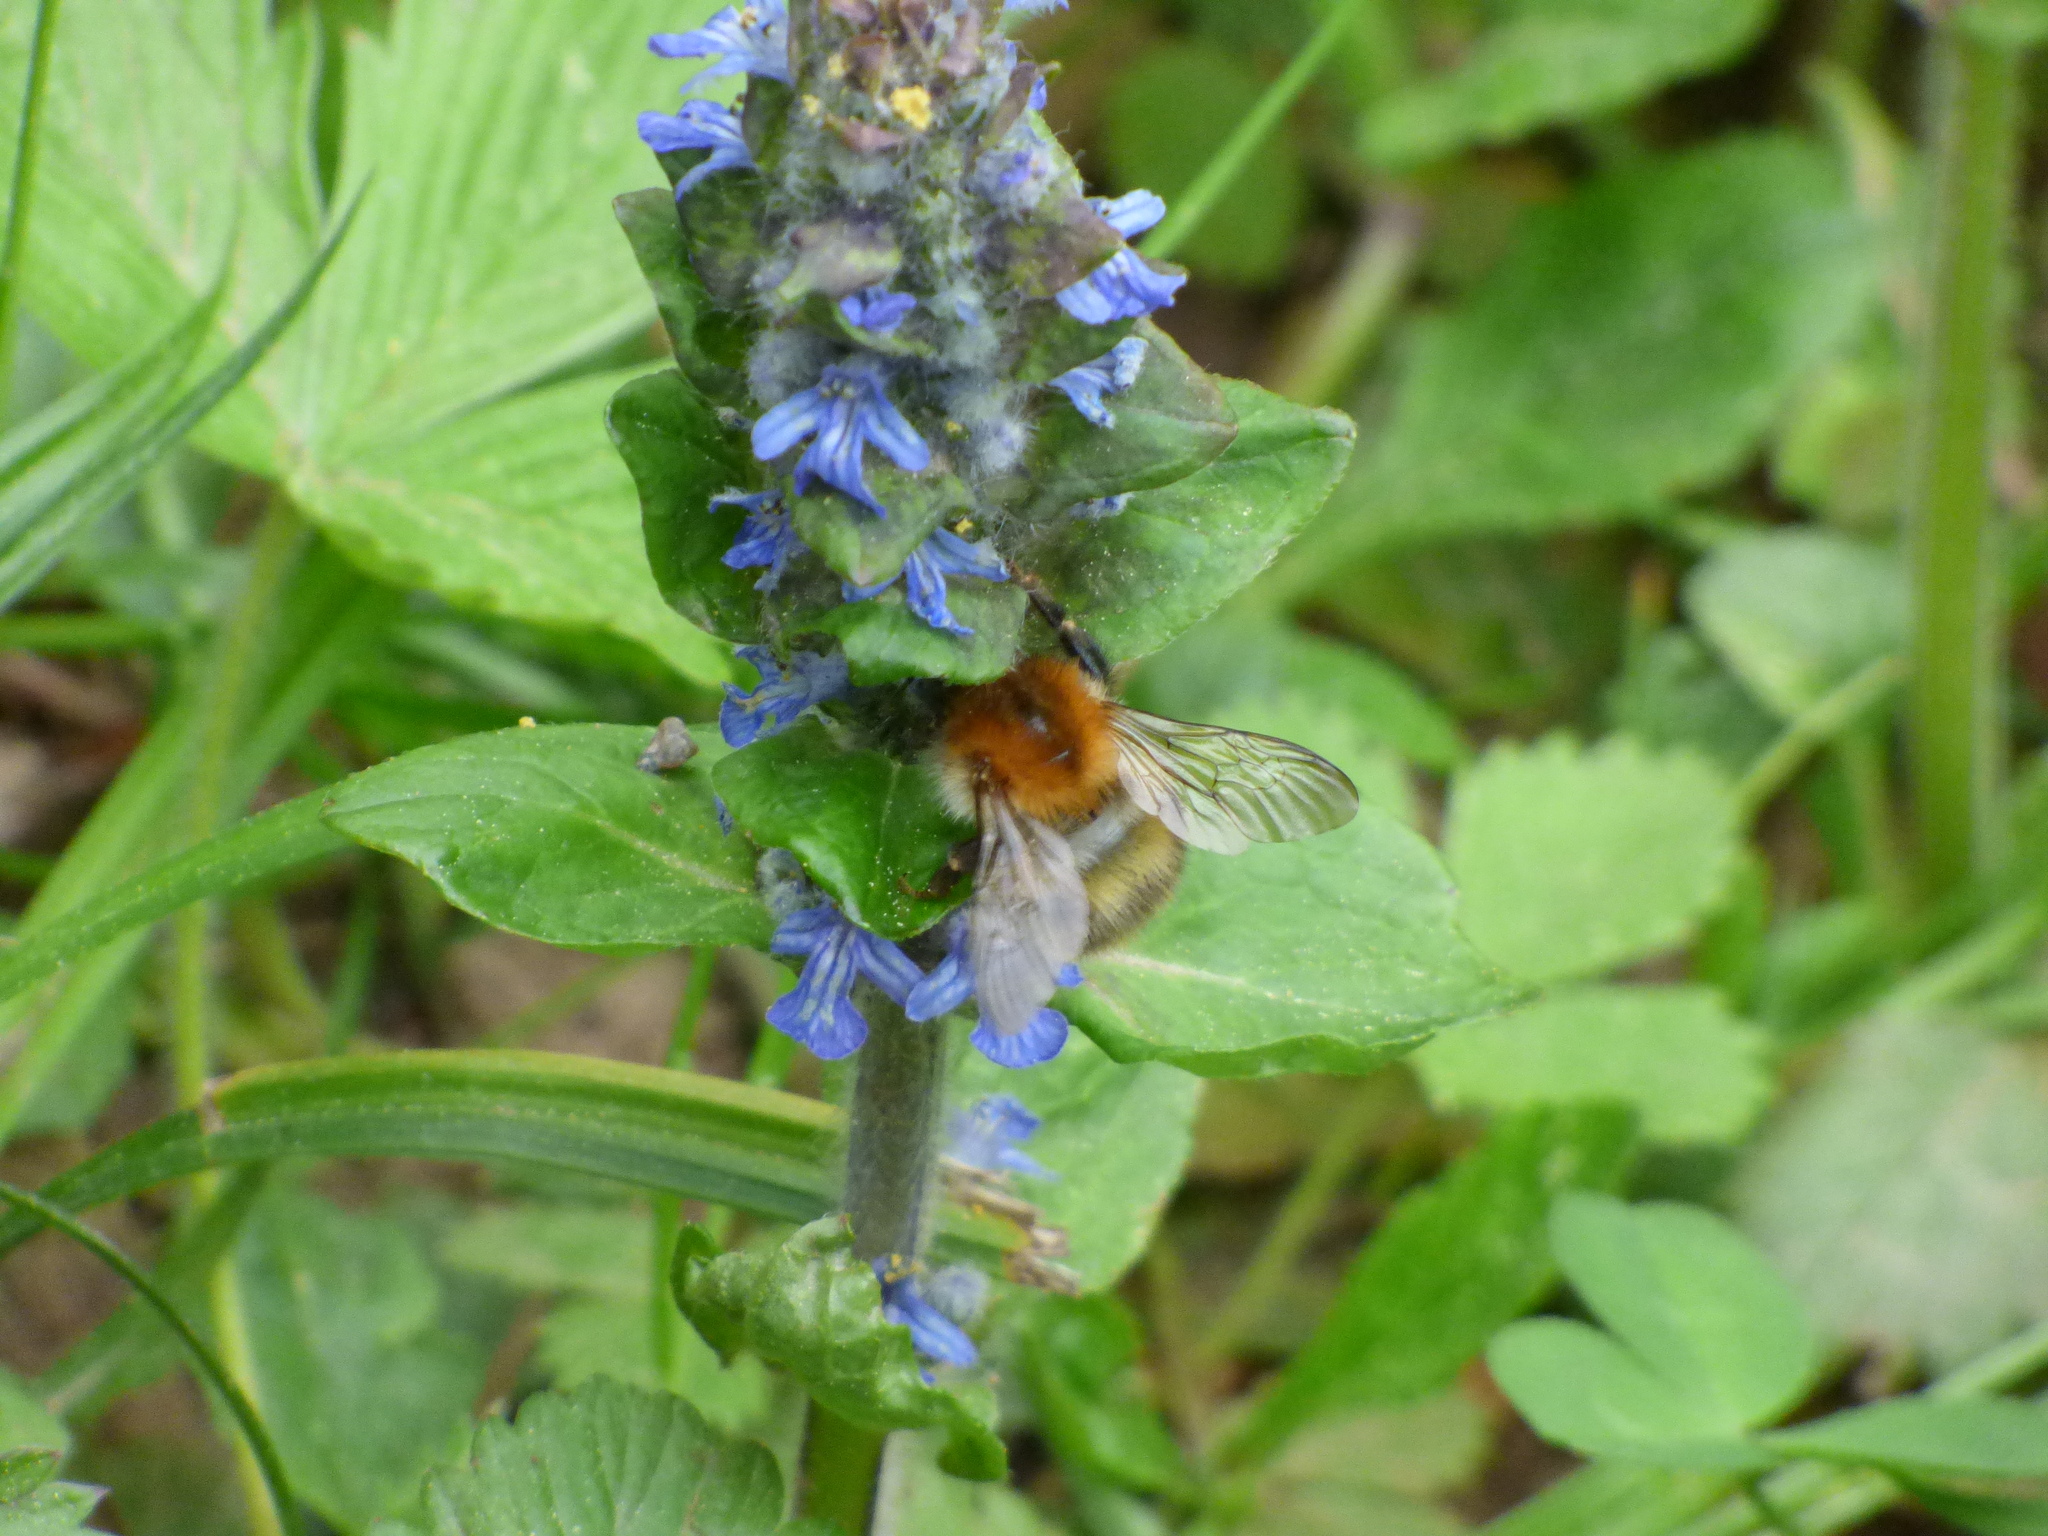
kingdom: Animalia
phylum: Arthropoda
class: Insecta
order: Hymenoptera
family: Apidae
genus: Bombus
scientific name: Bombus pascuorum
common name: Common carder bee
